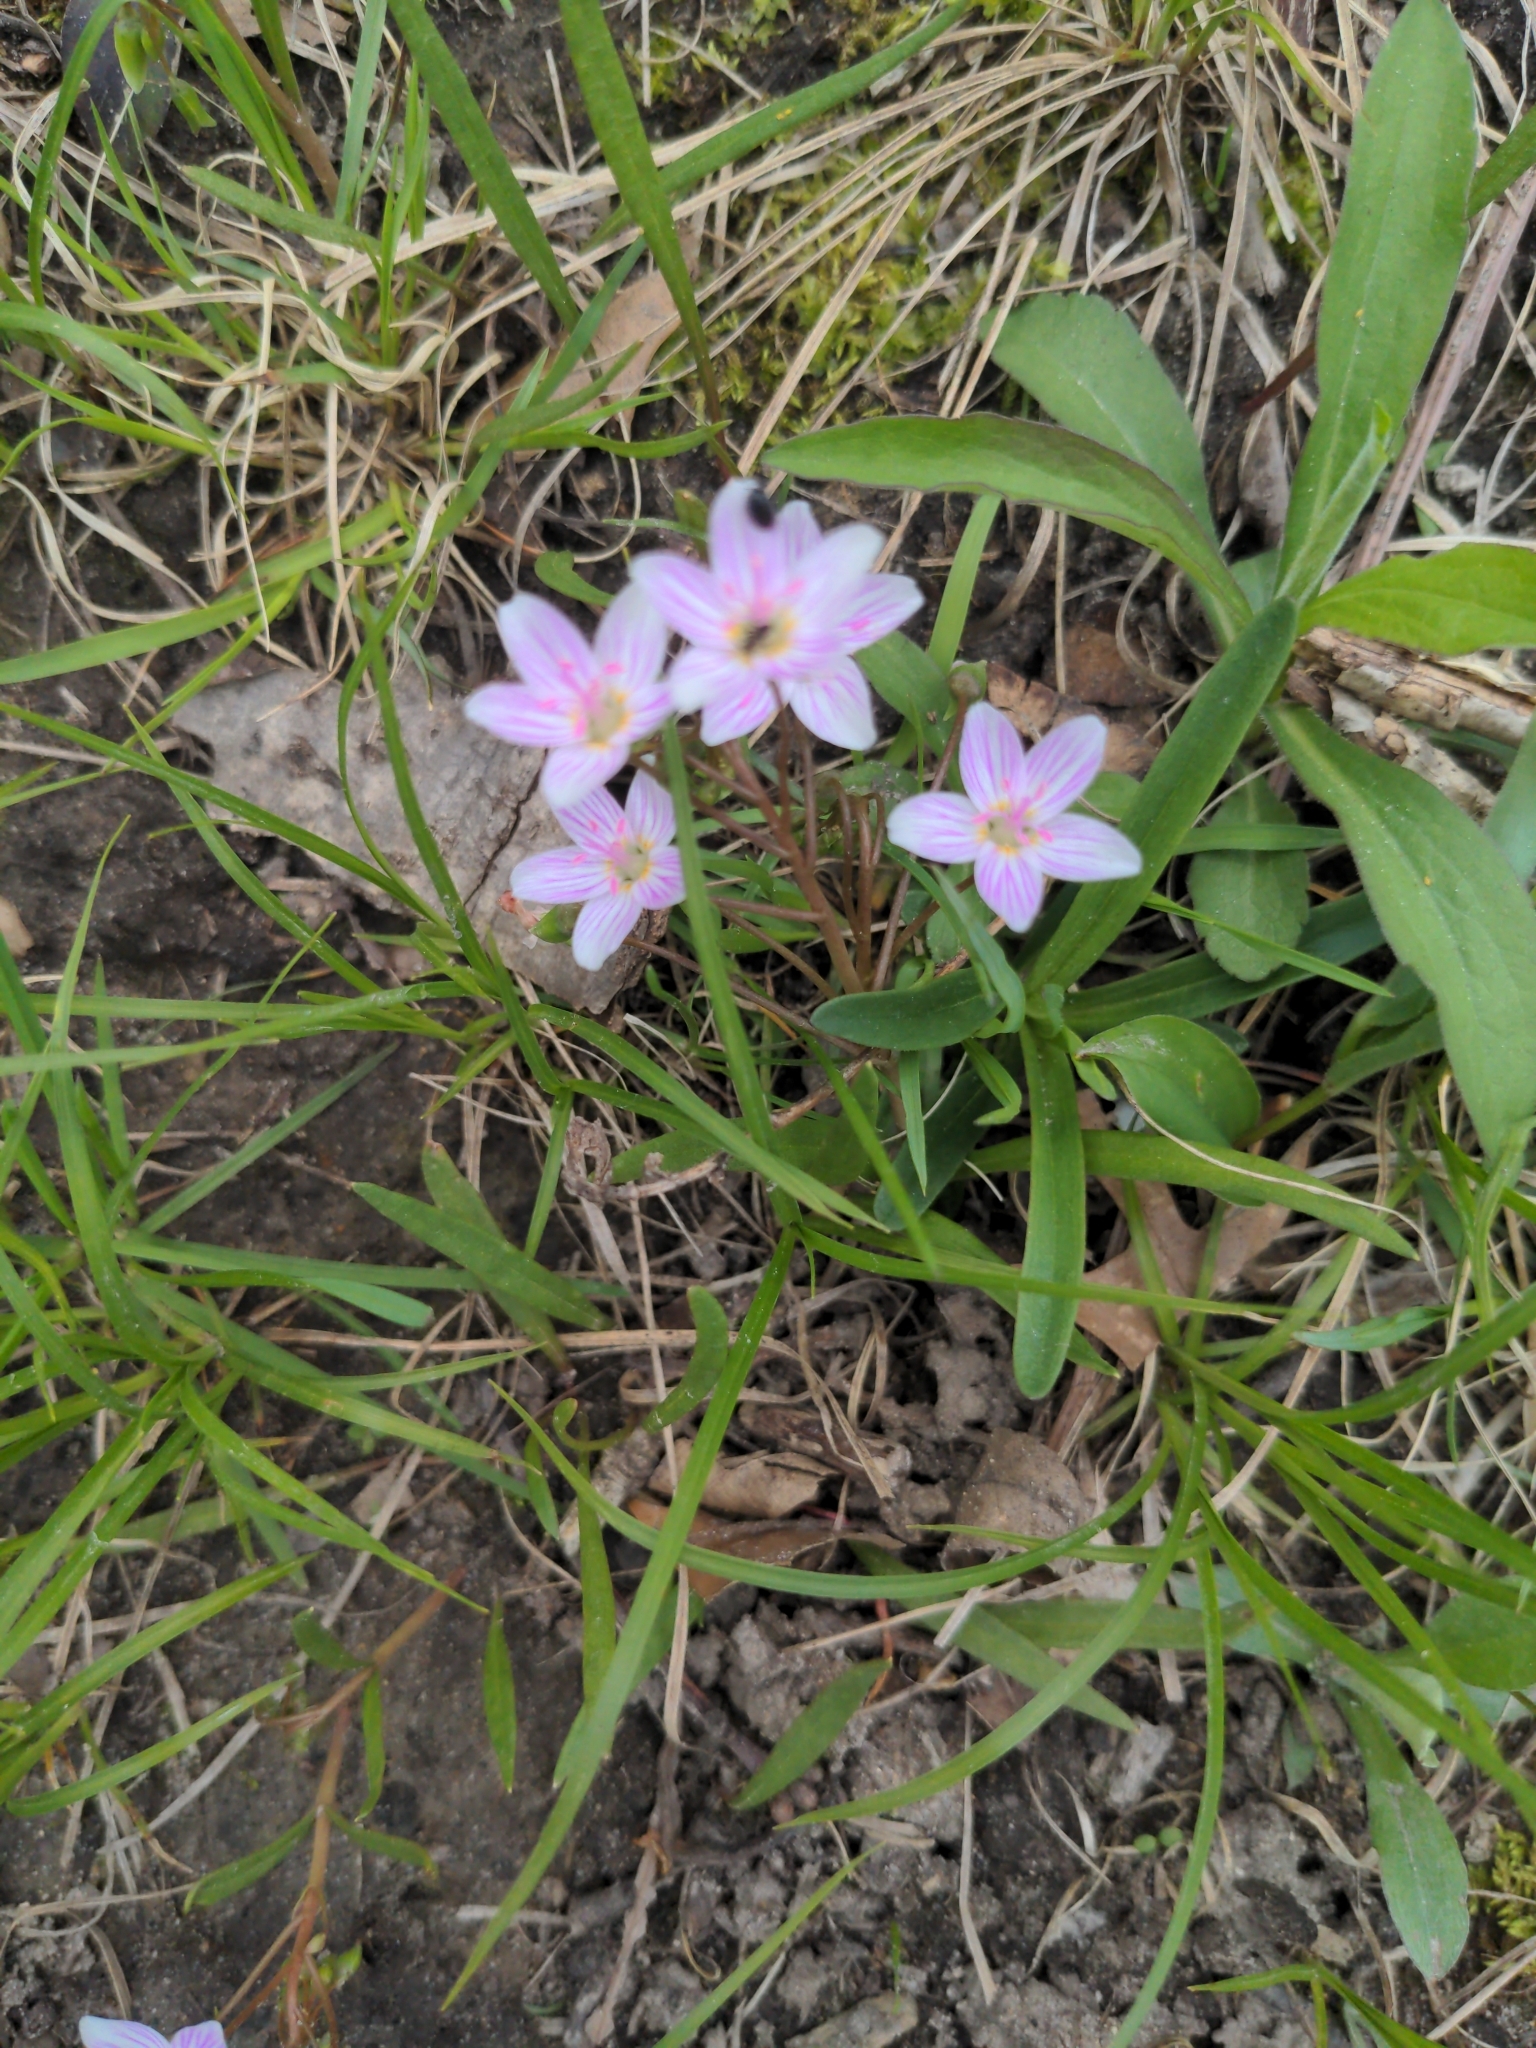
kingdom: Plantae
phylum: Tracheophyta
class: Magnoliopsida
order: Caryophyllales
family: Montiaceae
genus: Claytonia
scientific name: Claytonia virginica
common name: Virginia springbeauty
